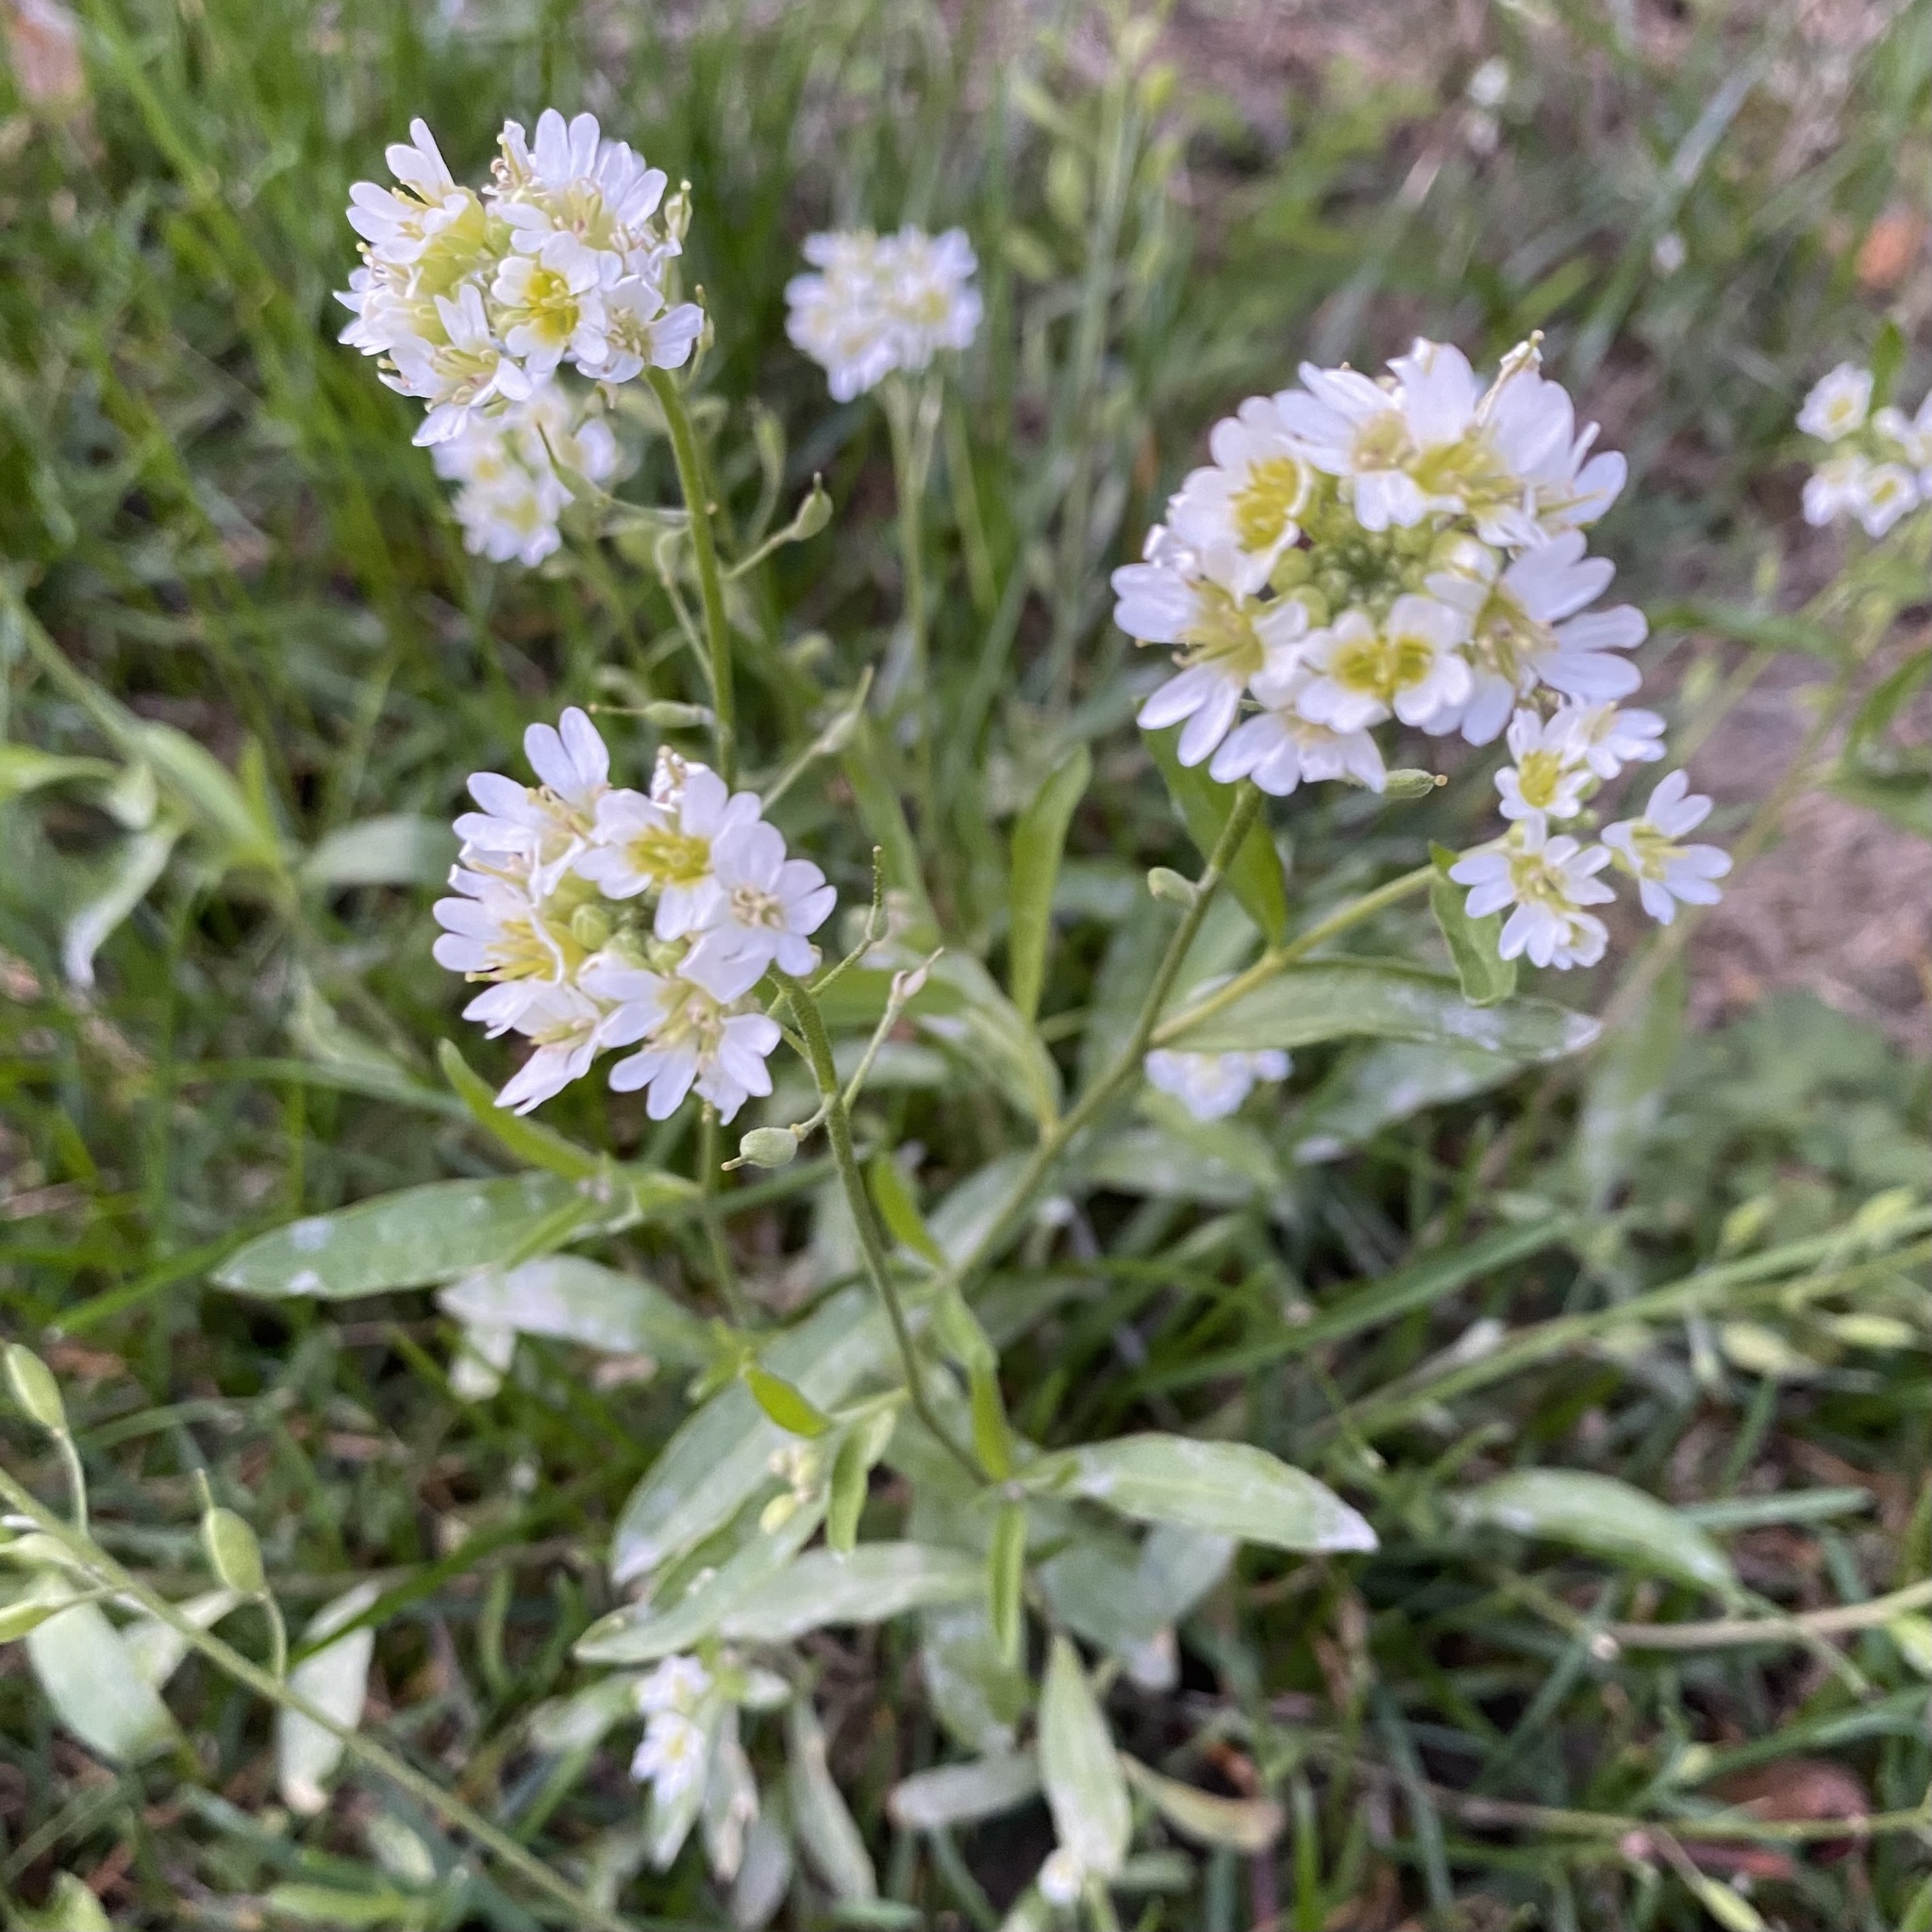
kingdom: Plantae
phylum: Tracheophyta
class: Magnoliopsida
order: Brassicales
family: Brassicaceae
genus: Berteroa
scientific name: Berteroa incana
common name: Hoary alison
